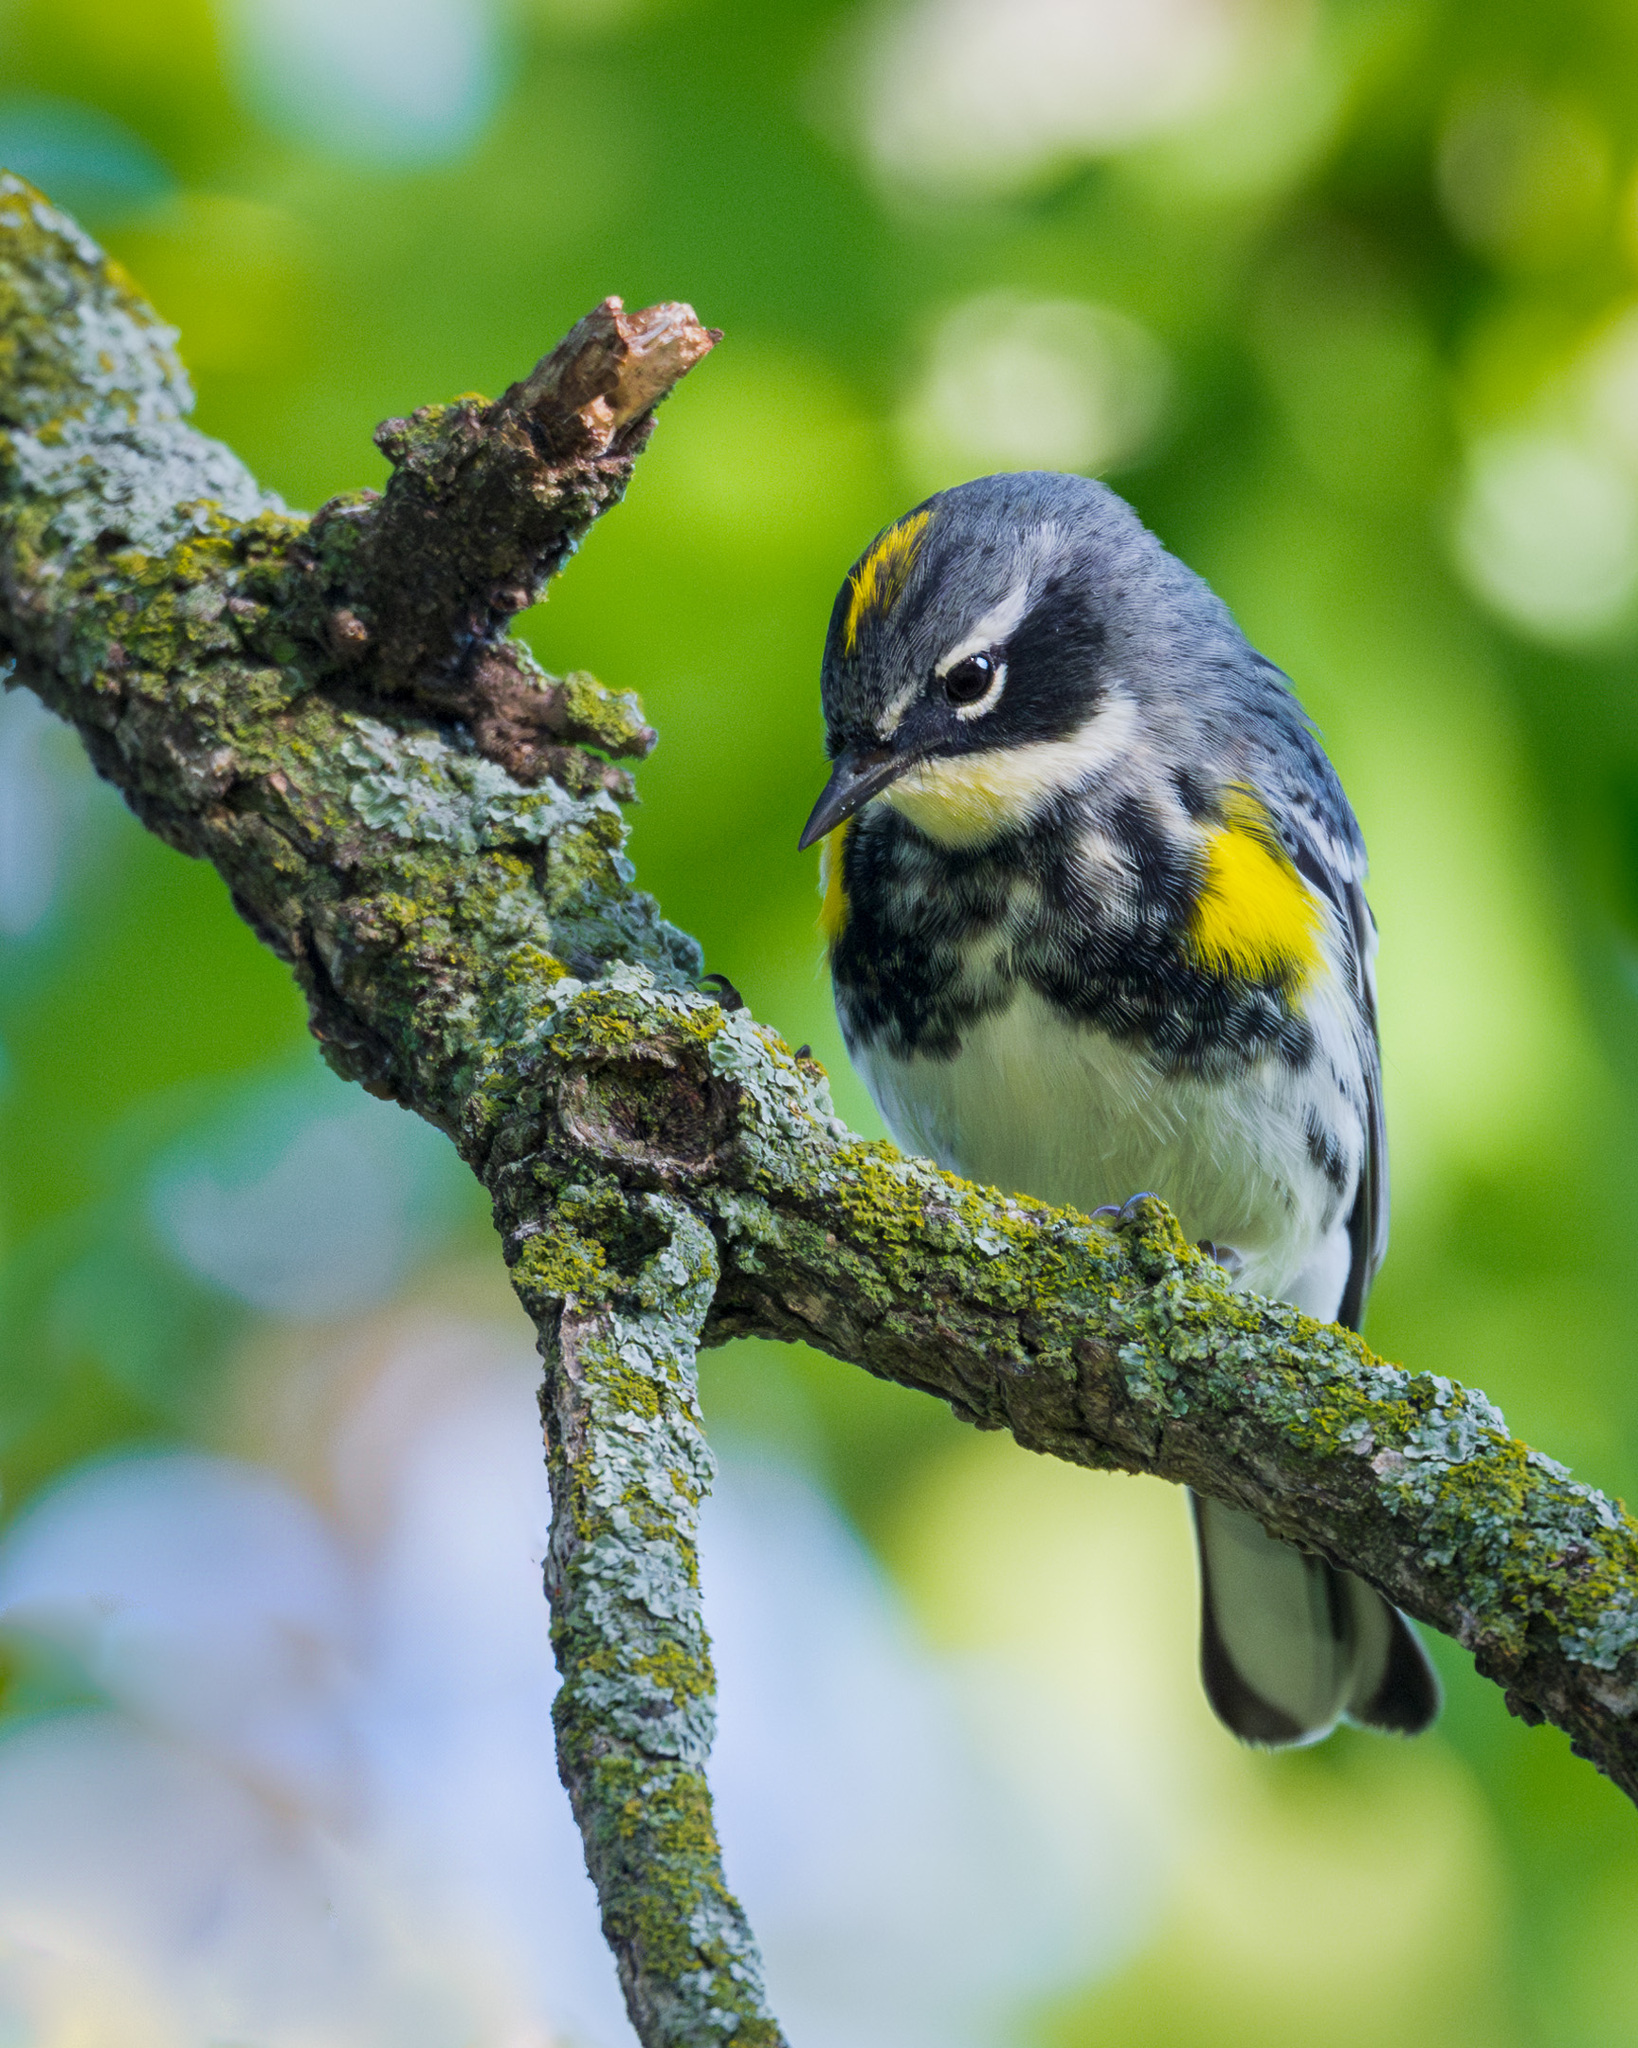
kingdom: Animalia
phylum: Chordata
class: Aves
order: Passeriformes
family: Parulidae
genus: Setophaga
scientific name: Setophaga coronata
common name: Myrtle warbler
